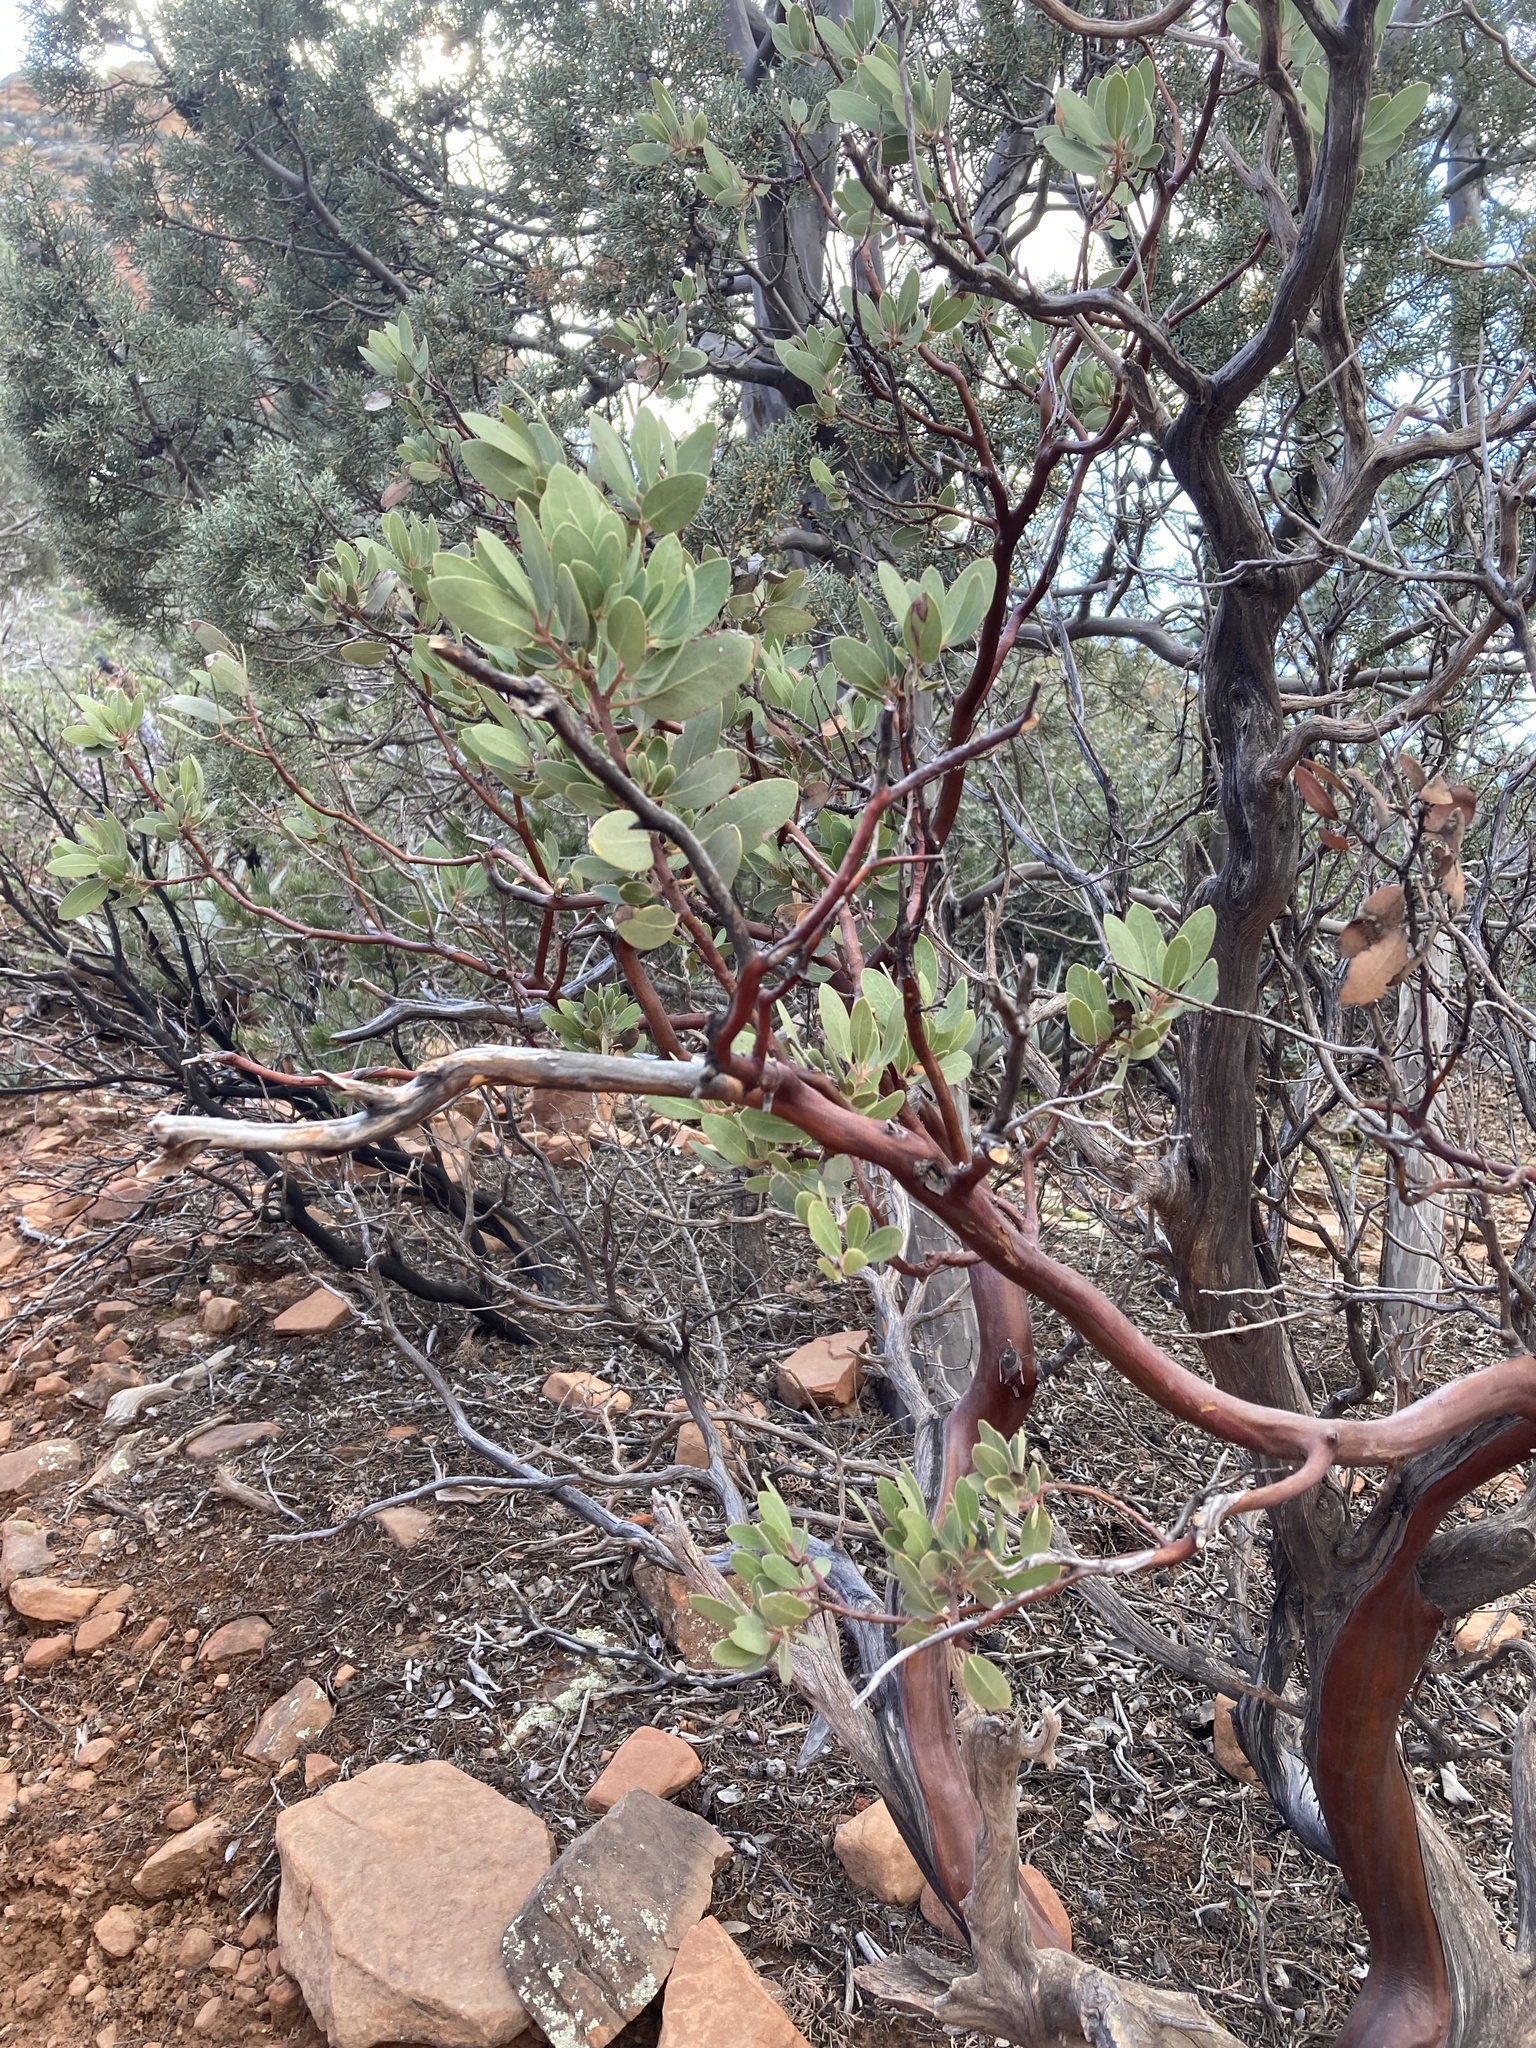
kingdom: Plantae
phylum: Tracheophyta
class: Magnoliopsida
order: Ericales
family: Ericaceae
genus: Arctostaphylos
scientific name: Arctostaphylos pringlei
